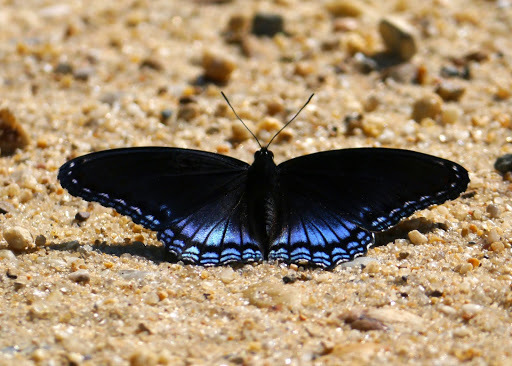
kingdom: Animalia
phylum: Arthropoda
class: Insecta
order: Lepidoptera
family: Nymphalidae
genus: Limenitis
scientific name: Limenitis arthemis
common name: Red-spotted admiral
